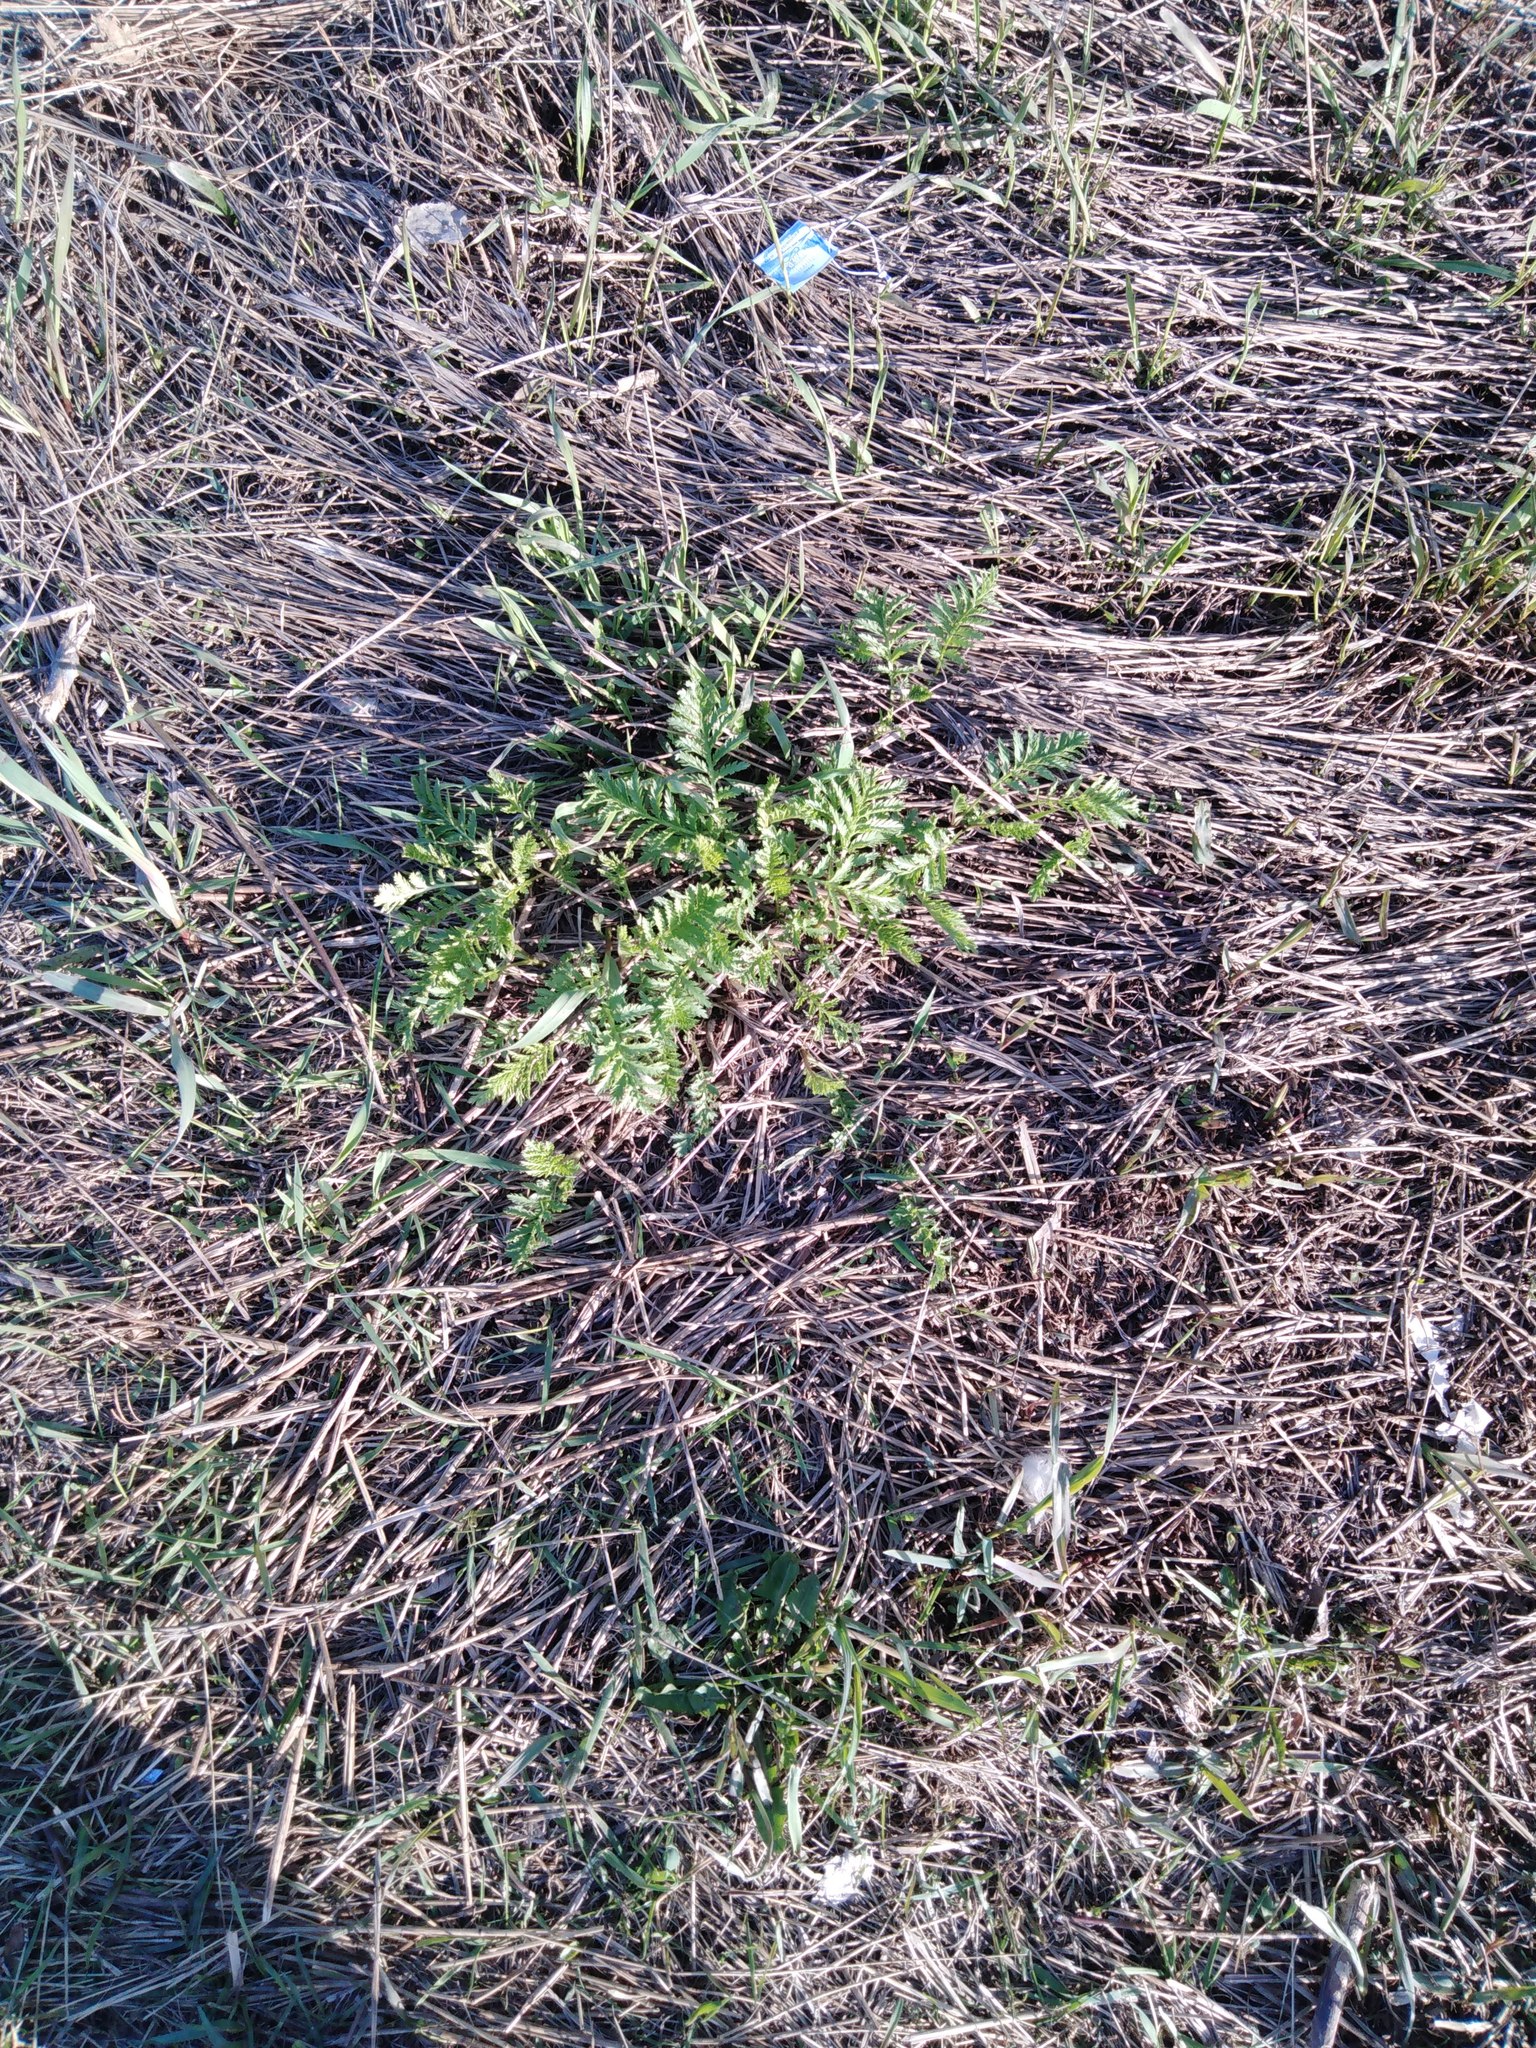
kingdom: Plantae
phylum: Tracheophyta
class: Magnoliopsida
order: Asterales
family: Asteraceae
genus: Tanacetum
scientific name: Tanacetum vulgare
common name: Common tansy
